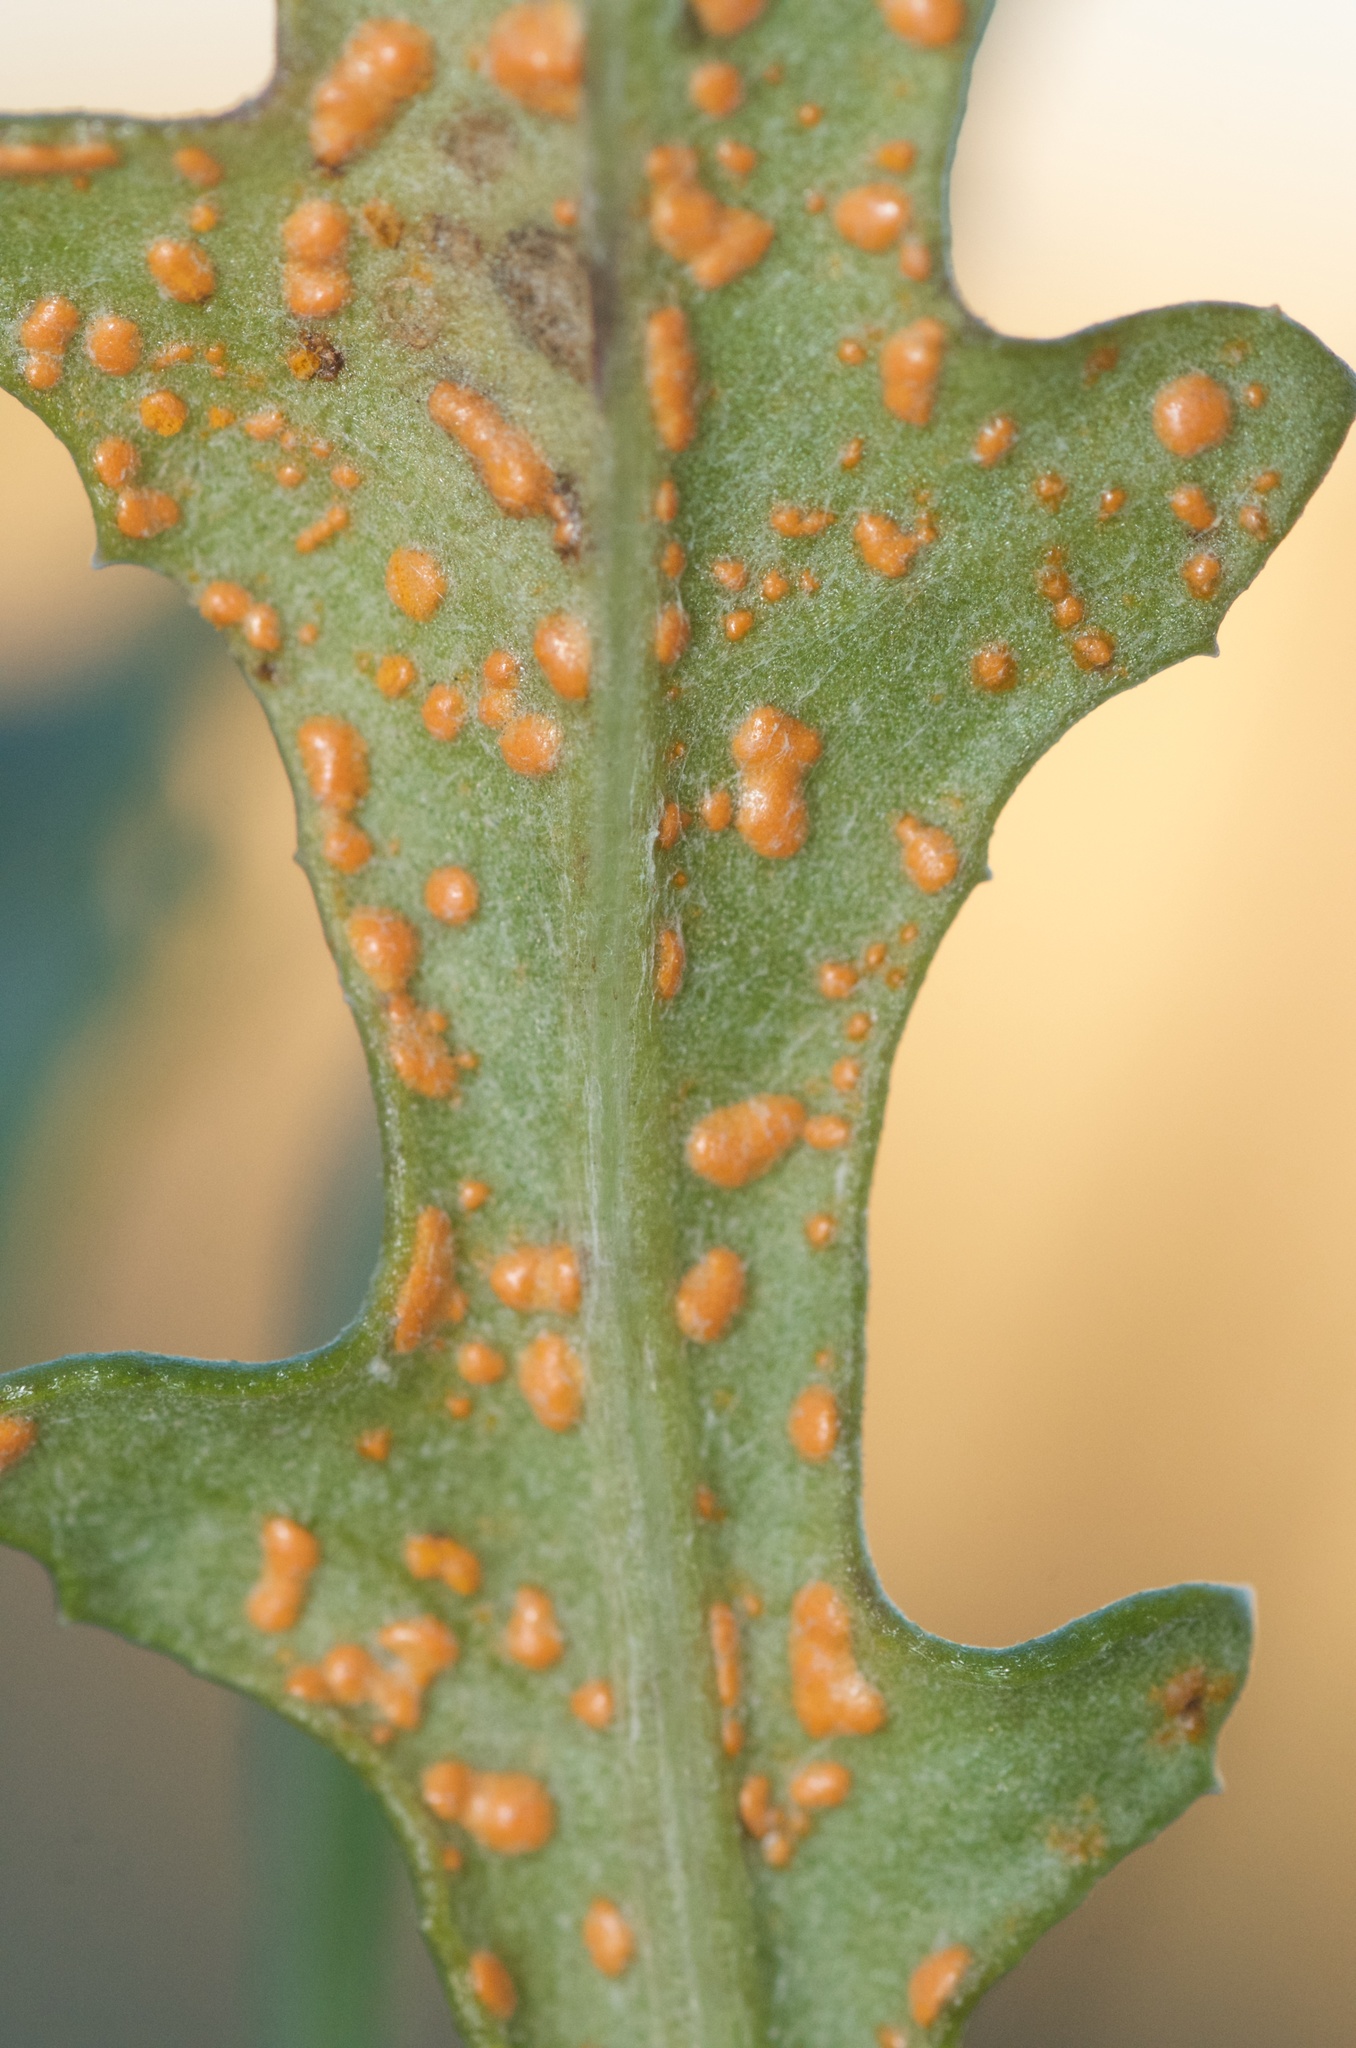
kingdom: Fungi
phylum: Basidiomycota
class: Pucciniomycetes
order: Pucciniales
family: Coleosporiaceae
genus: Coleosporium
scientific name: Coleosporium tussilaginis
